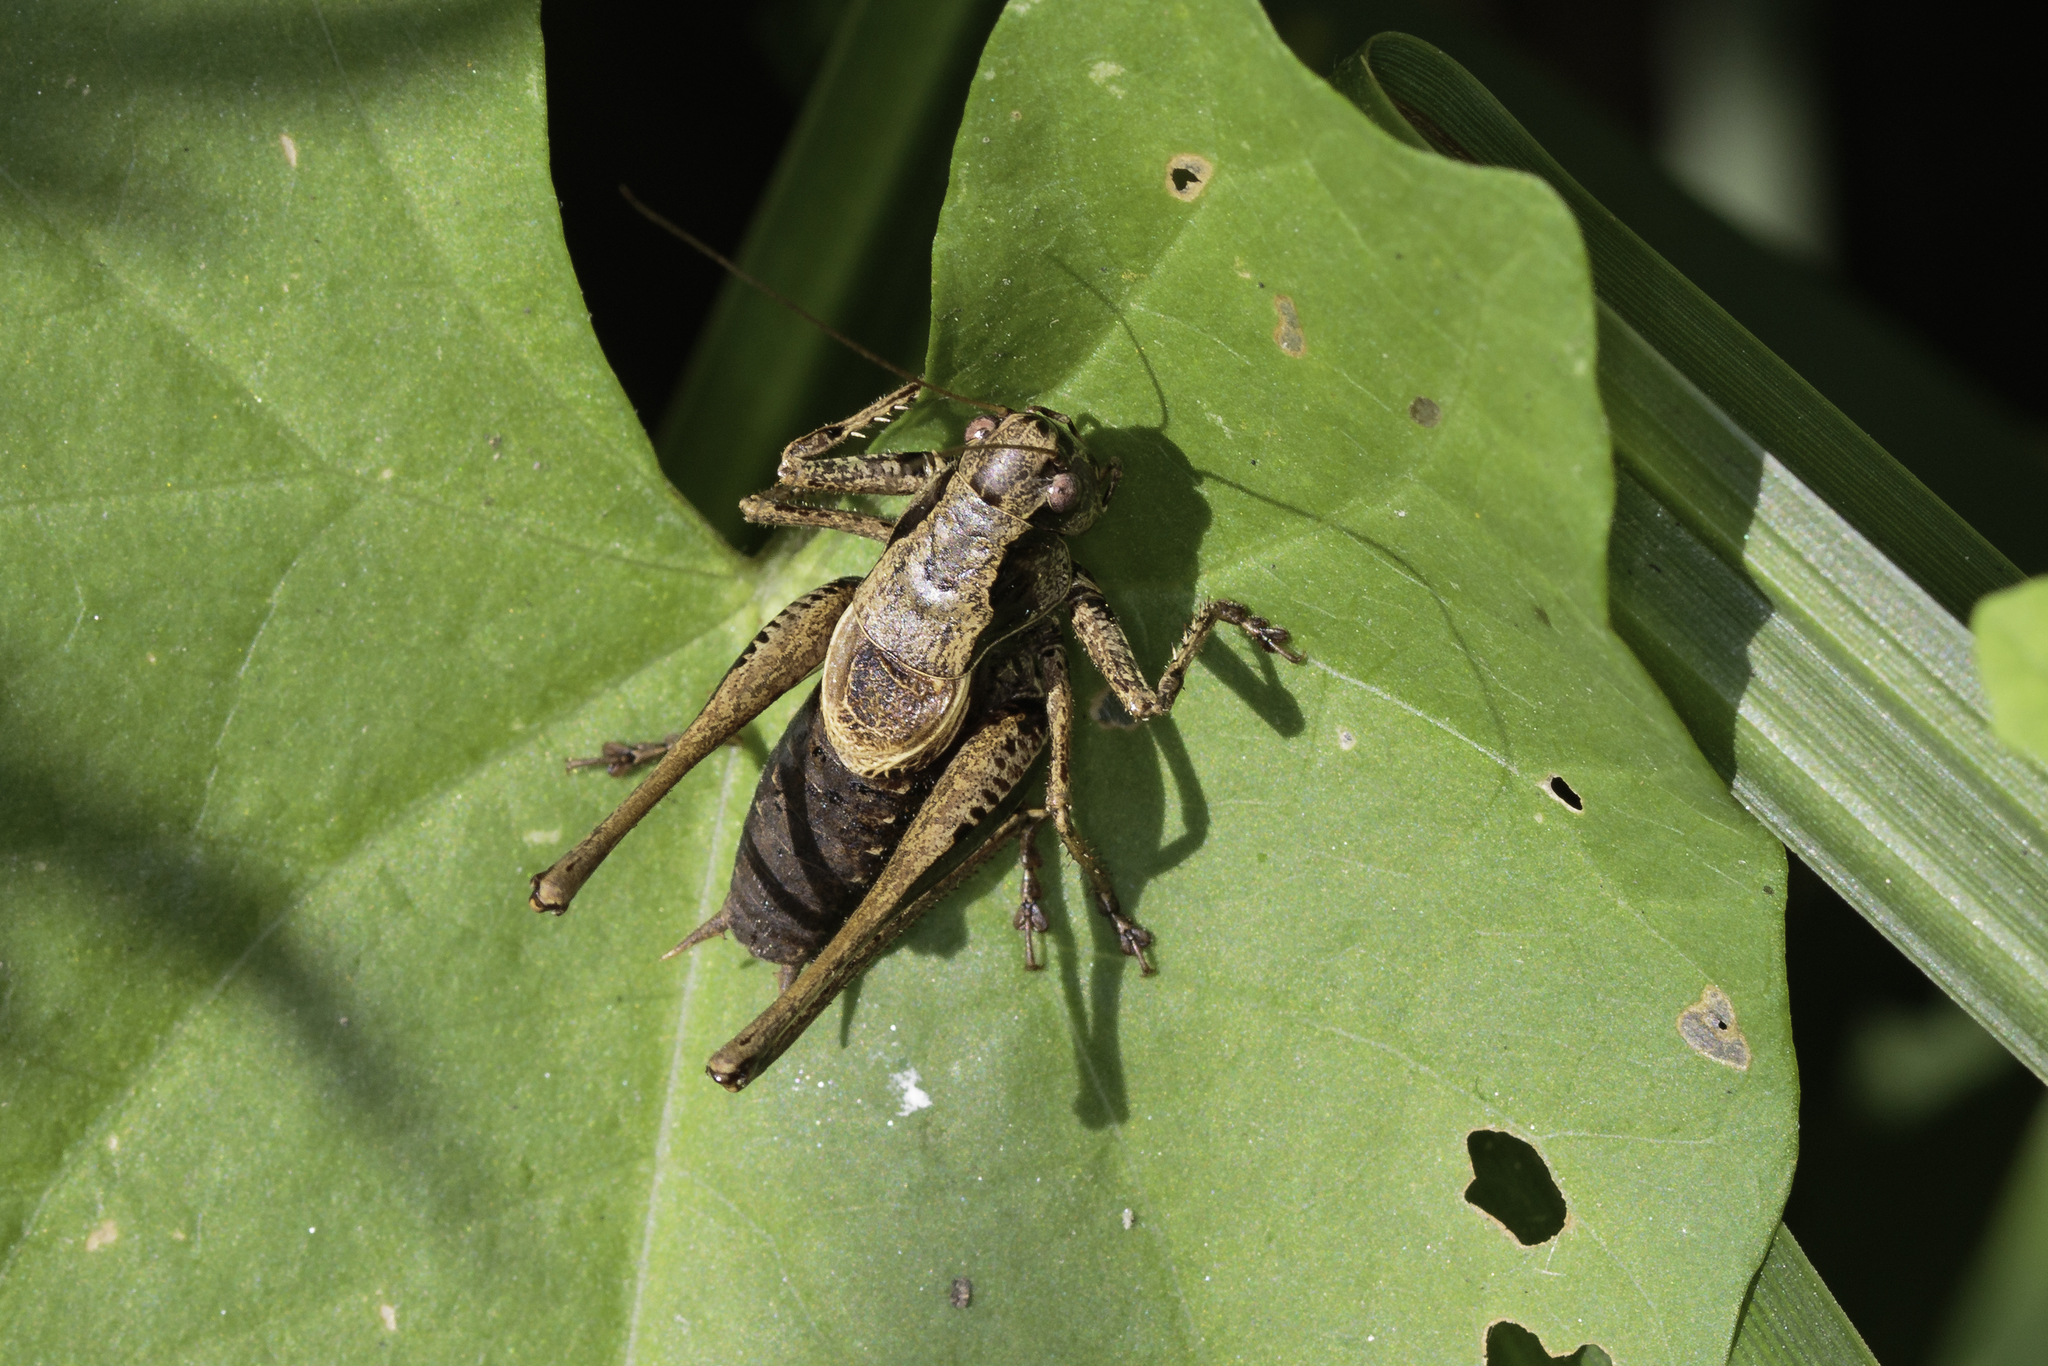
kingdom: Animalia
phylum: Arthropoda
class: Insecta
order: Orthoptera
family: Tettigoniidae
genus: Pholidoptera
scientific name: Pholidoptera griseoaptera
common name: Dark bush-cricket
